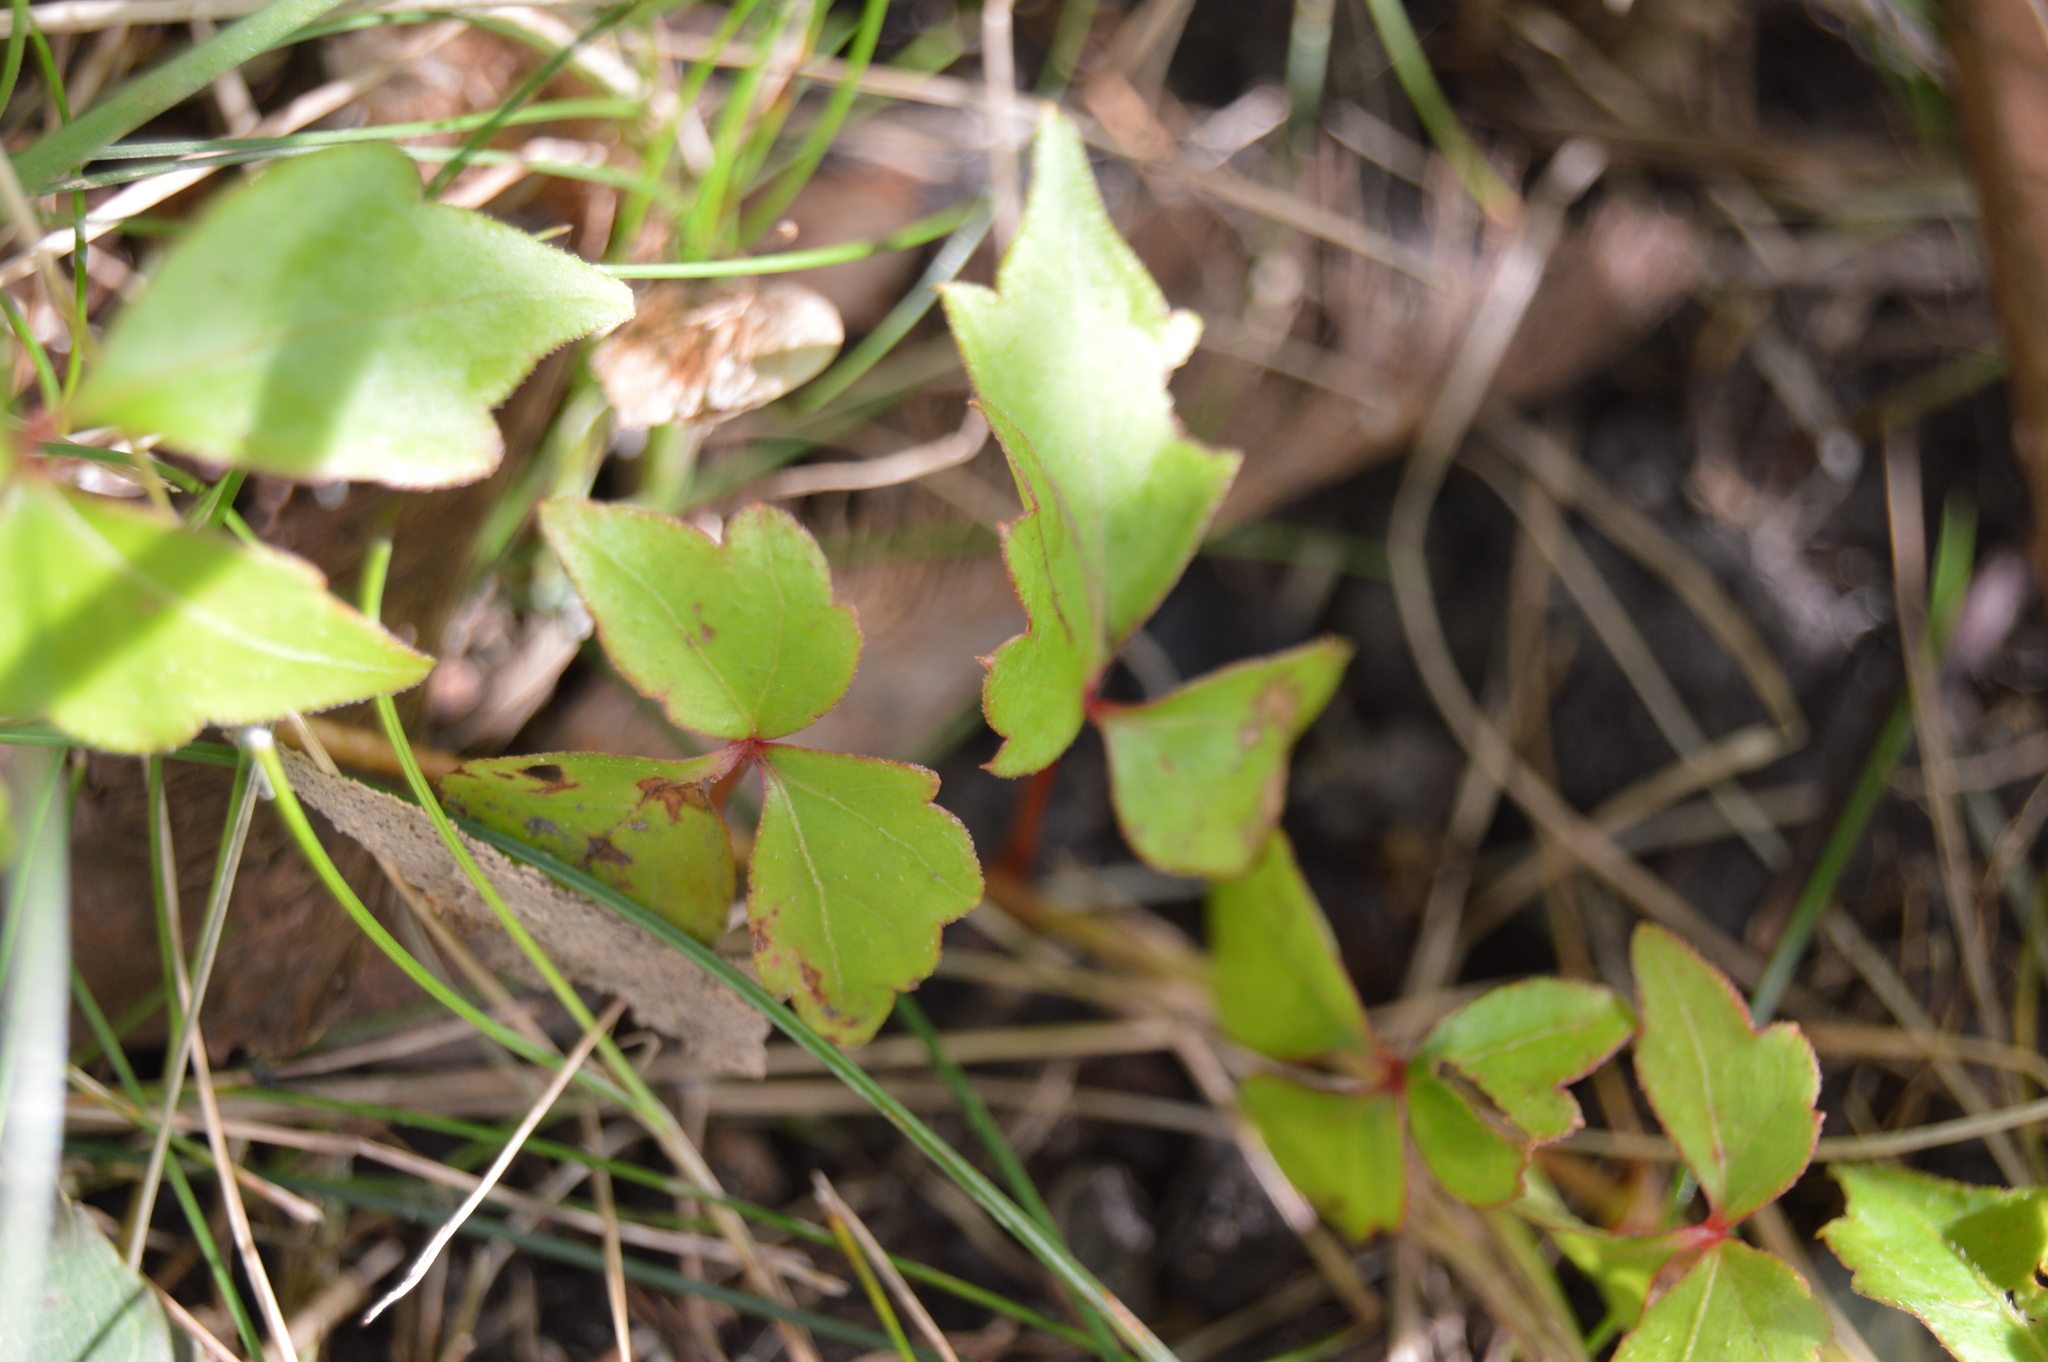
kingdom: Plantae
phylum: Tracheophyta
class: Magnoliopsida
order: Sapindales
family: Anacardiaceae
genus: Toxicodendron
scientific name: Toxicodendron radicans
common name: Poison ivy
